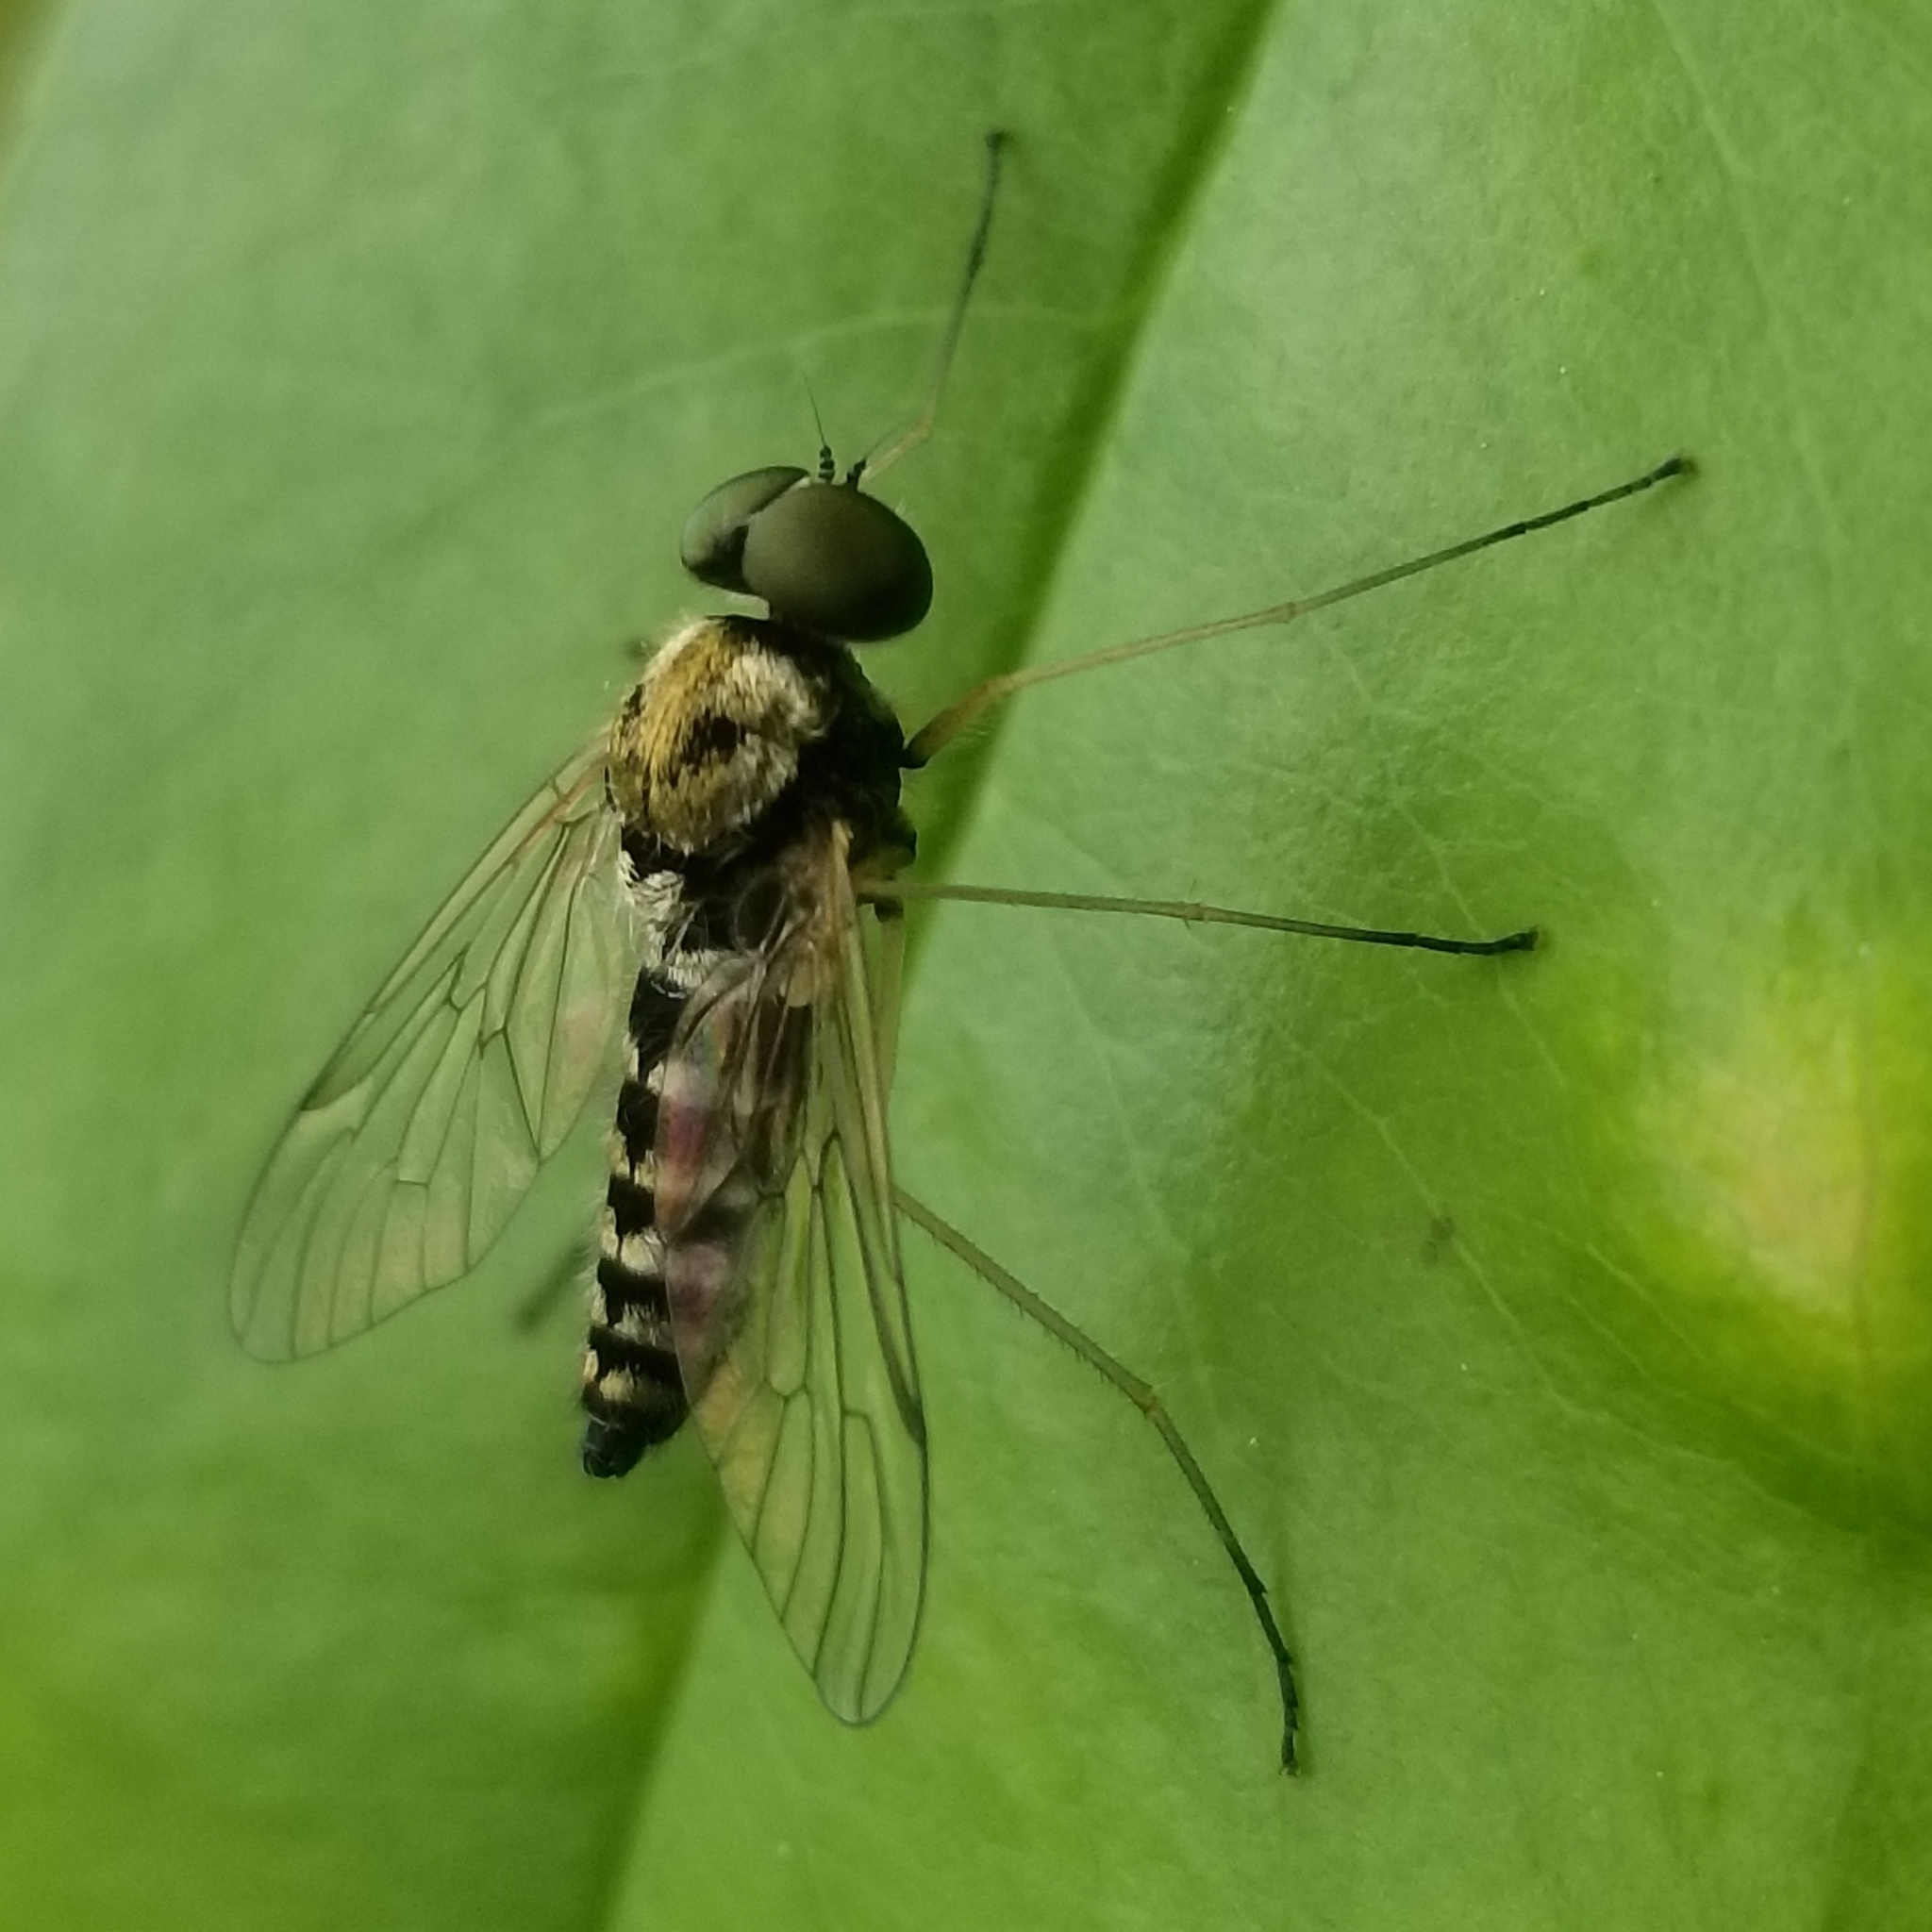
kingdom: Animalia
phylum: Arthropoda
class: Insecta
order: Diptera
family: Rhagionidae
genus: Chrysopilus
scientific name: Chrysopilus ornatus
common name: Ornate snipe fly
